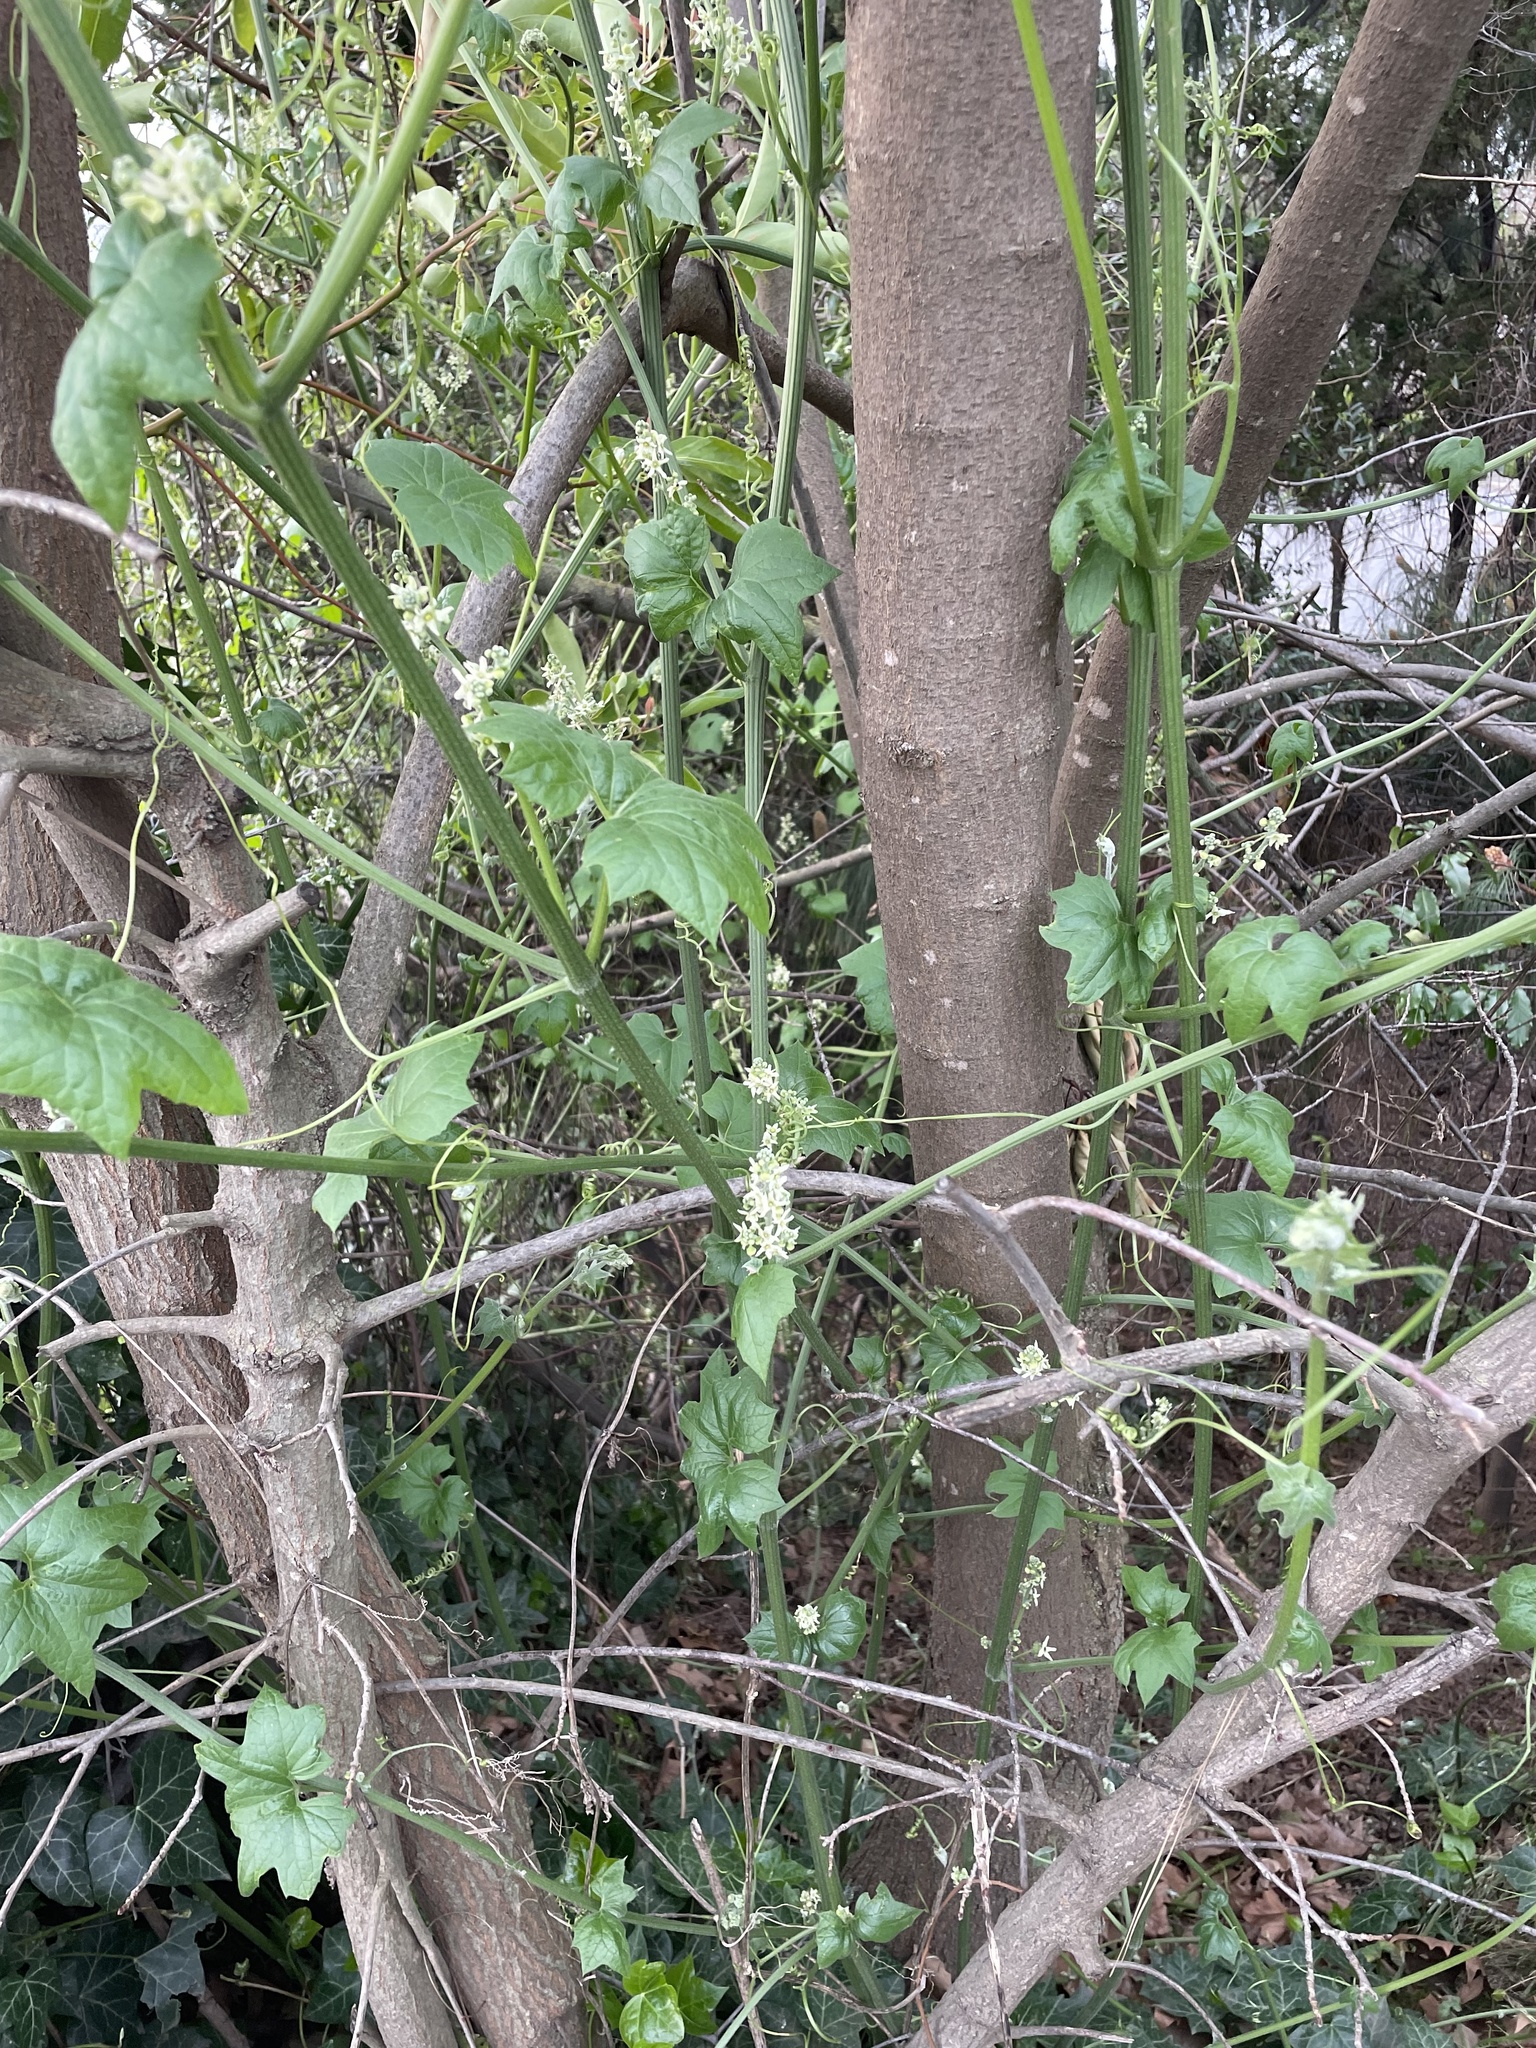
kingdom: Plantae
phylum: Tracheophyta
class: Magnoliopsida
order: Cucurbitales
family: Cucurbitaceae
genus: Marah
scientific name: Marah fabacea
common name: California manroot
